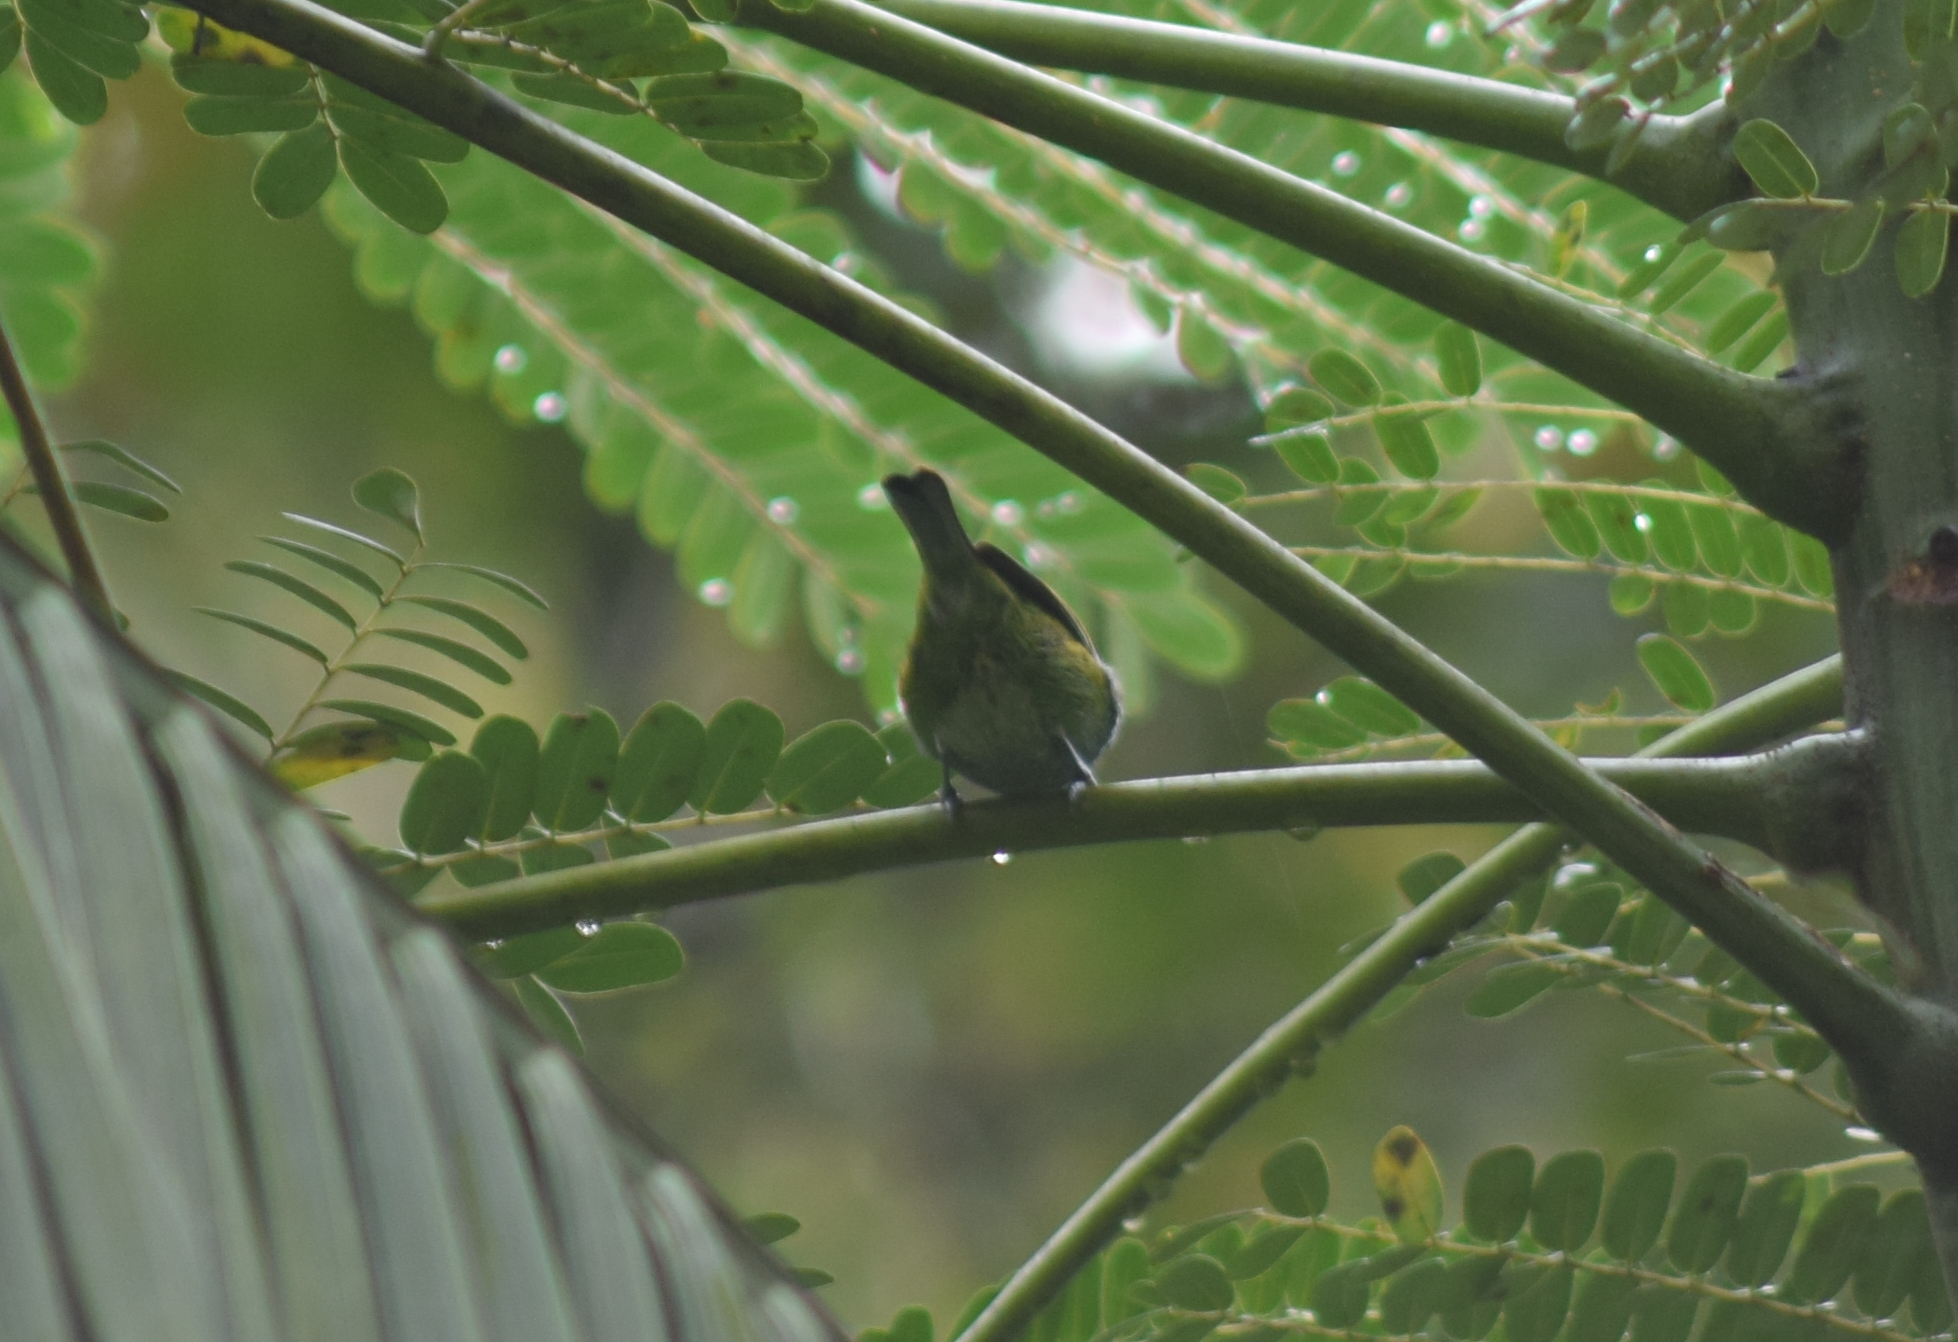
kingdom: Animalia
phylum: Chordata
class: Aves
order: Passeriformes
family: Thraupidae
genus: Tangara
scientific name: Tangara seledon
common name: Green-headed tanager
